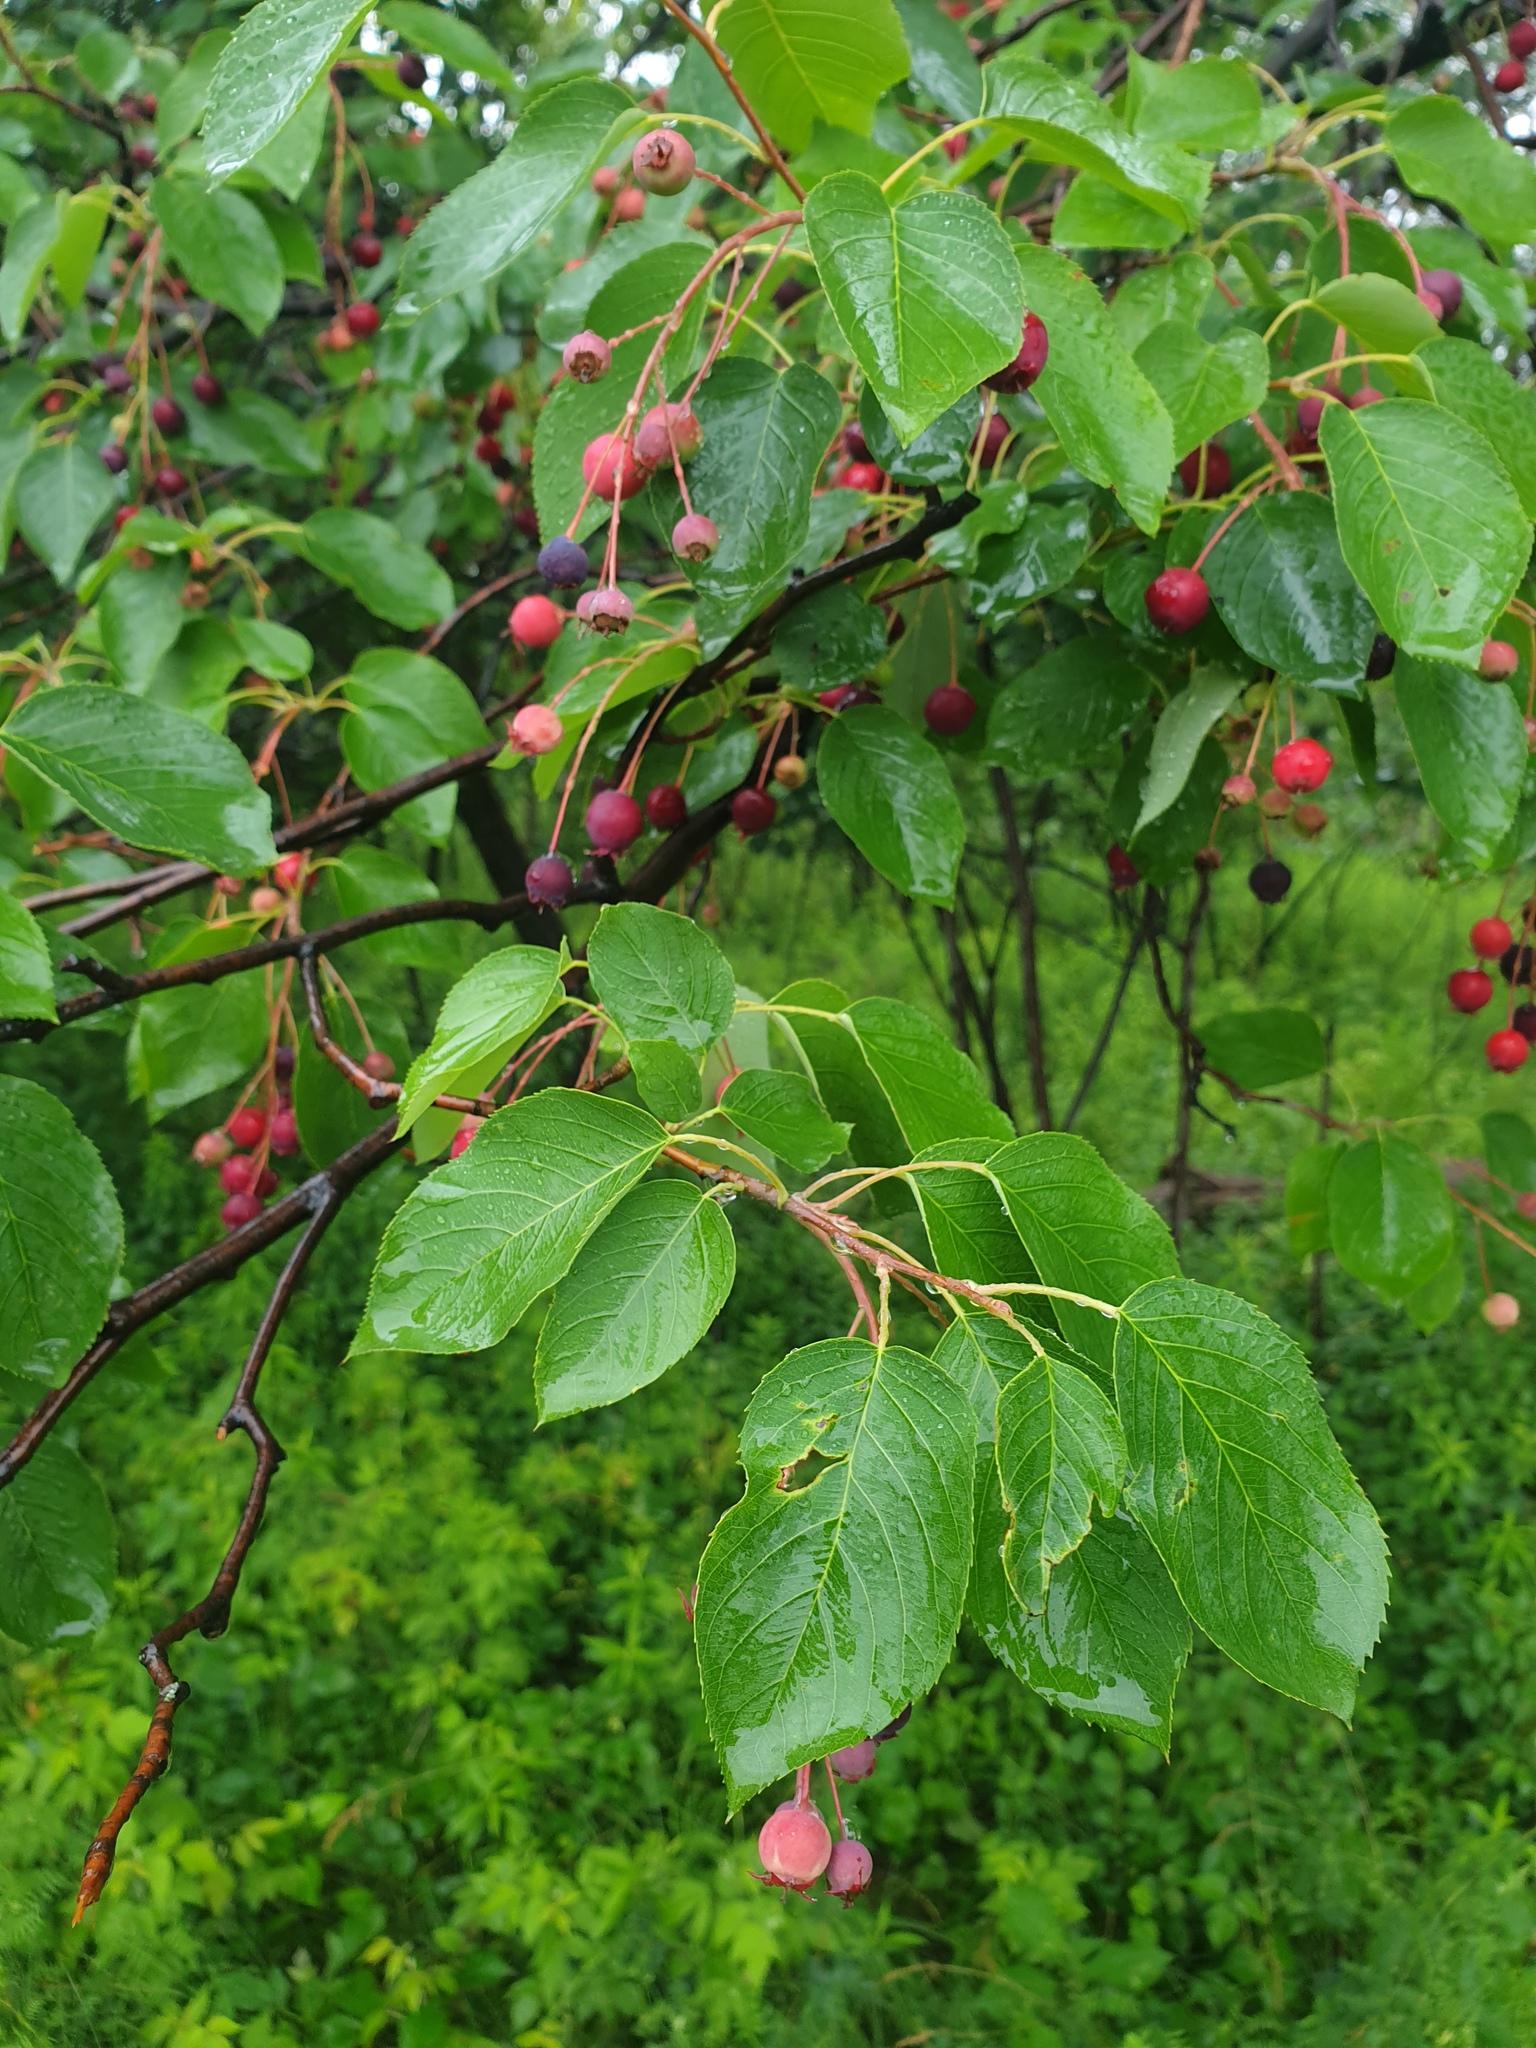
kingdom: Plantae
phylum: Tracheophyta
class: Magnoliopsida
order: Rosales
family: Rosaceae
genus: Amelanchier
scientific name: Amelanchier laevis
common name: Allegheny serviceberry
